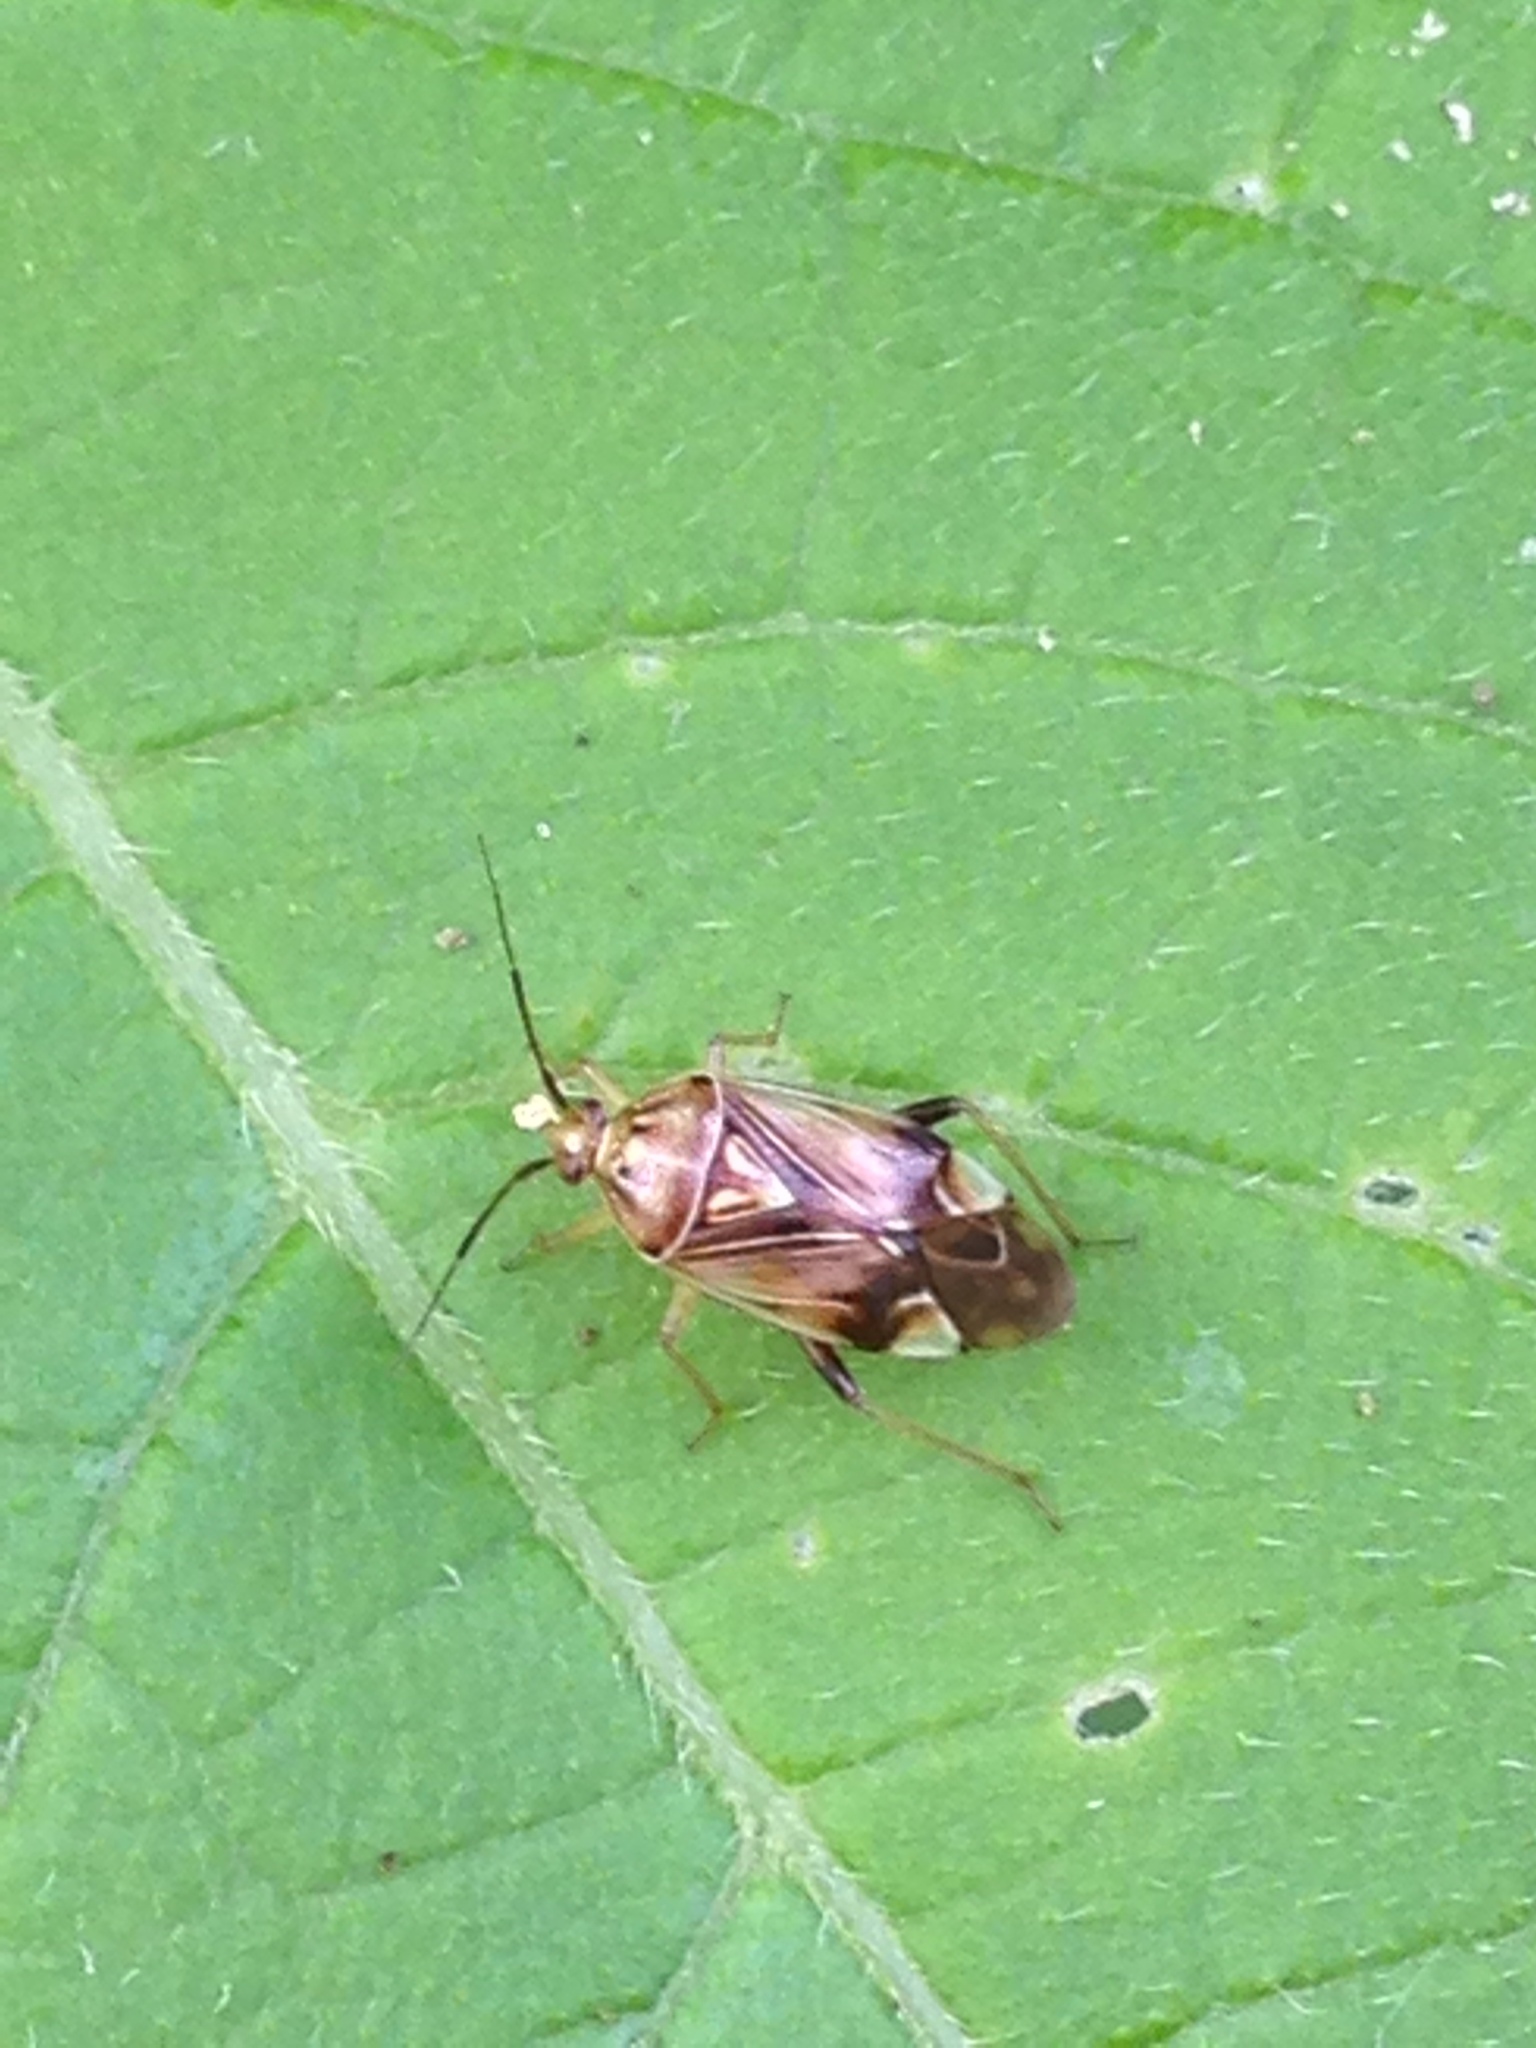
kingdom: Animalia
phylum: Arthropoda
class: Insecta
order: Hemiptera
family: Miridae
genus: Lygus
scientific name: Lygus lineolaris
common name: North american tarnished plant bug
